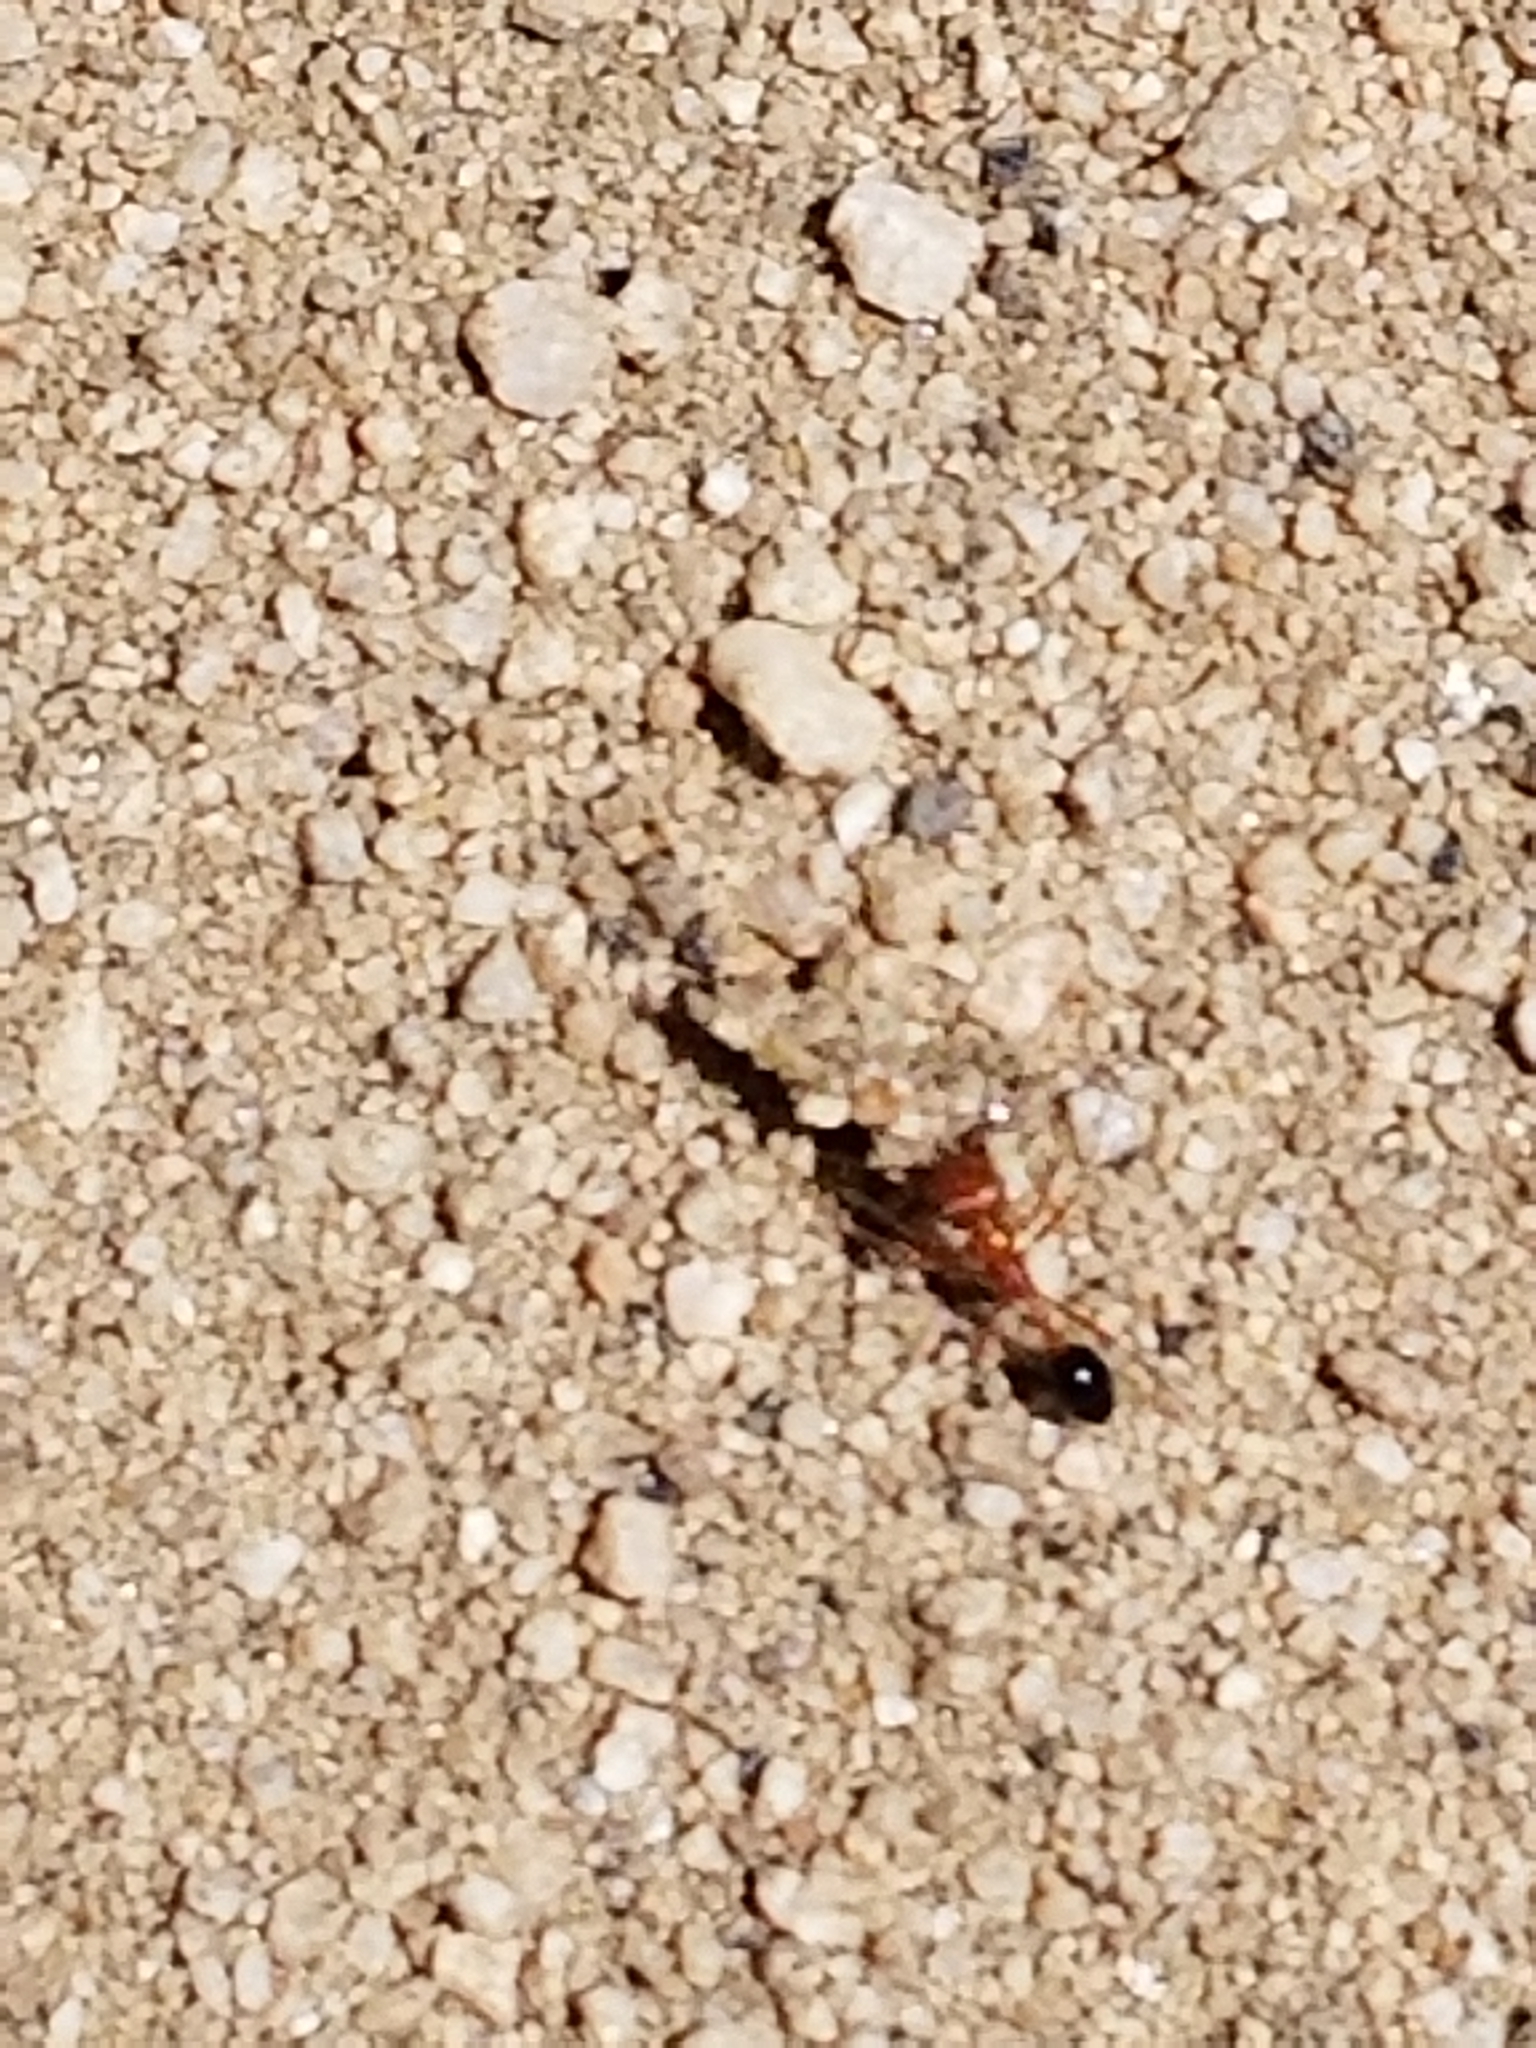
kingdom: Animalia
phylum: Arthropoda
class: Insecta
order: Hymenoptera
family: Formicidae
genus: Pogonomyrmex
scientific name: Pogonomyrmex californicus
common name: California harvester ant
